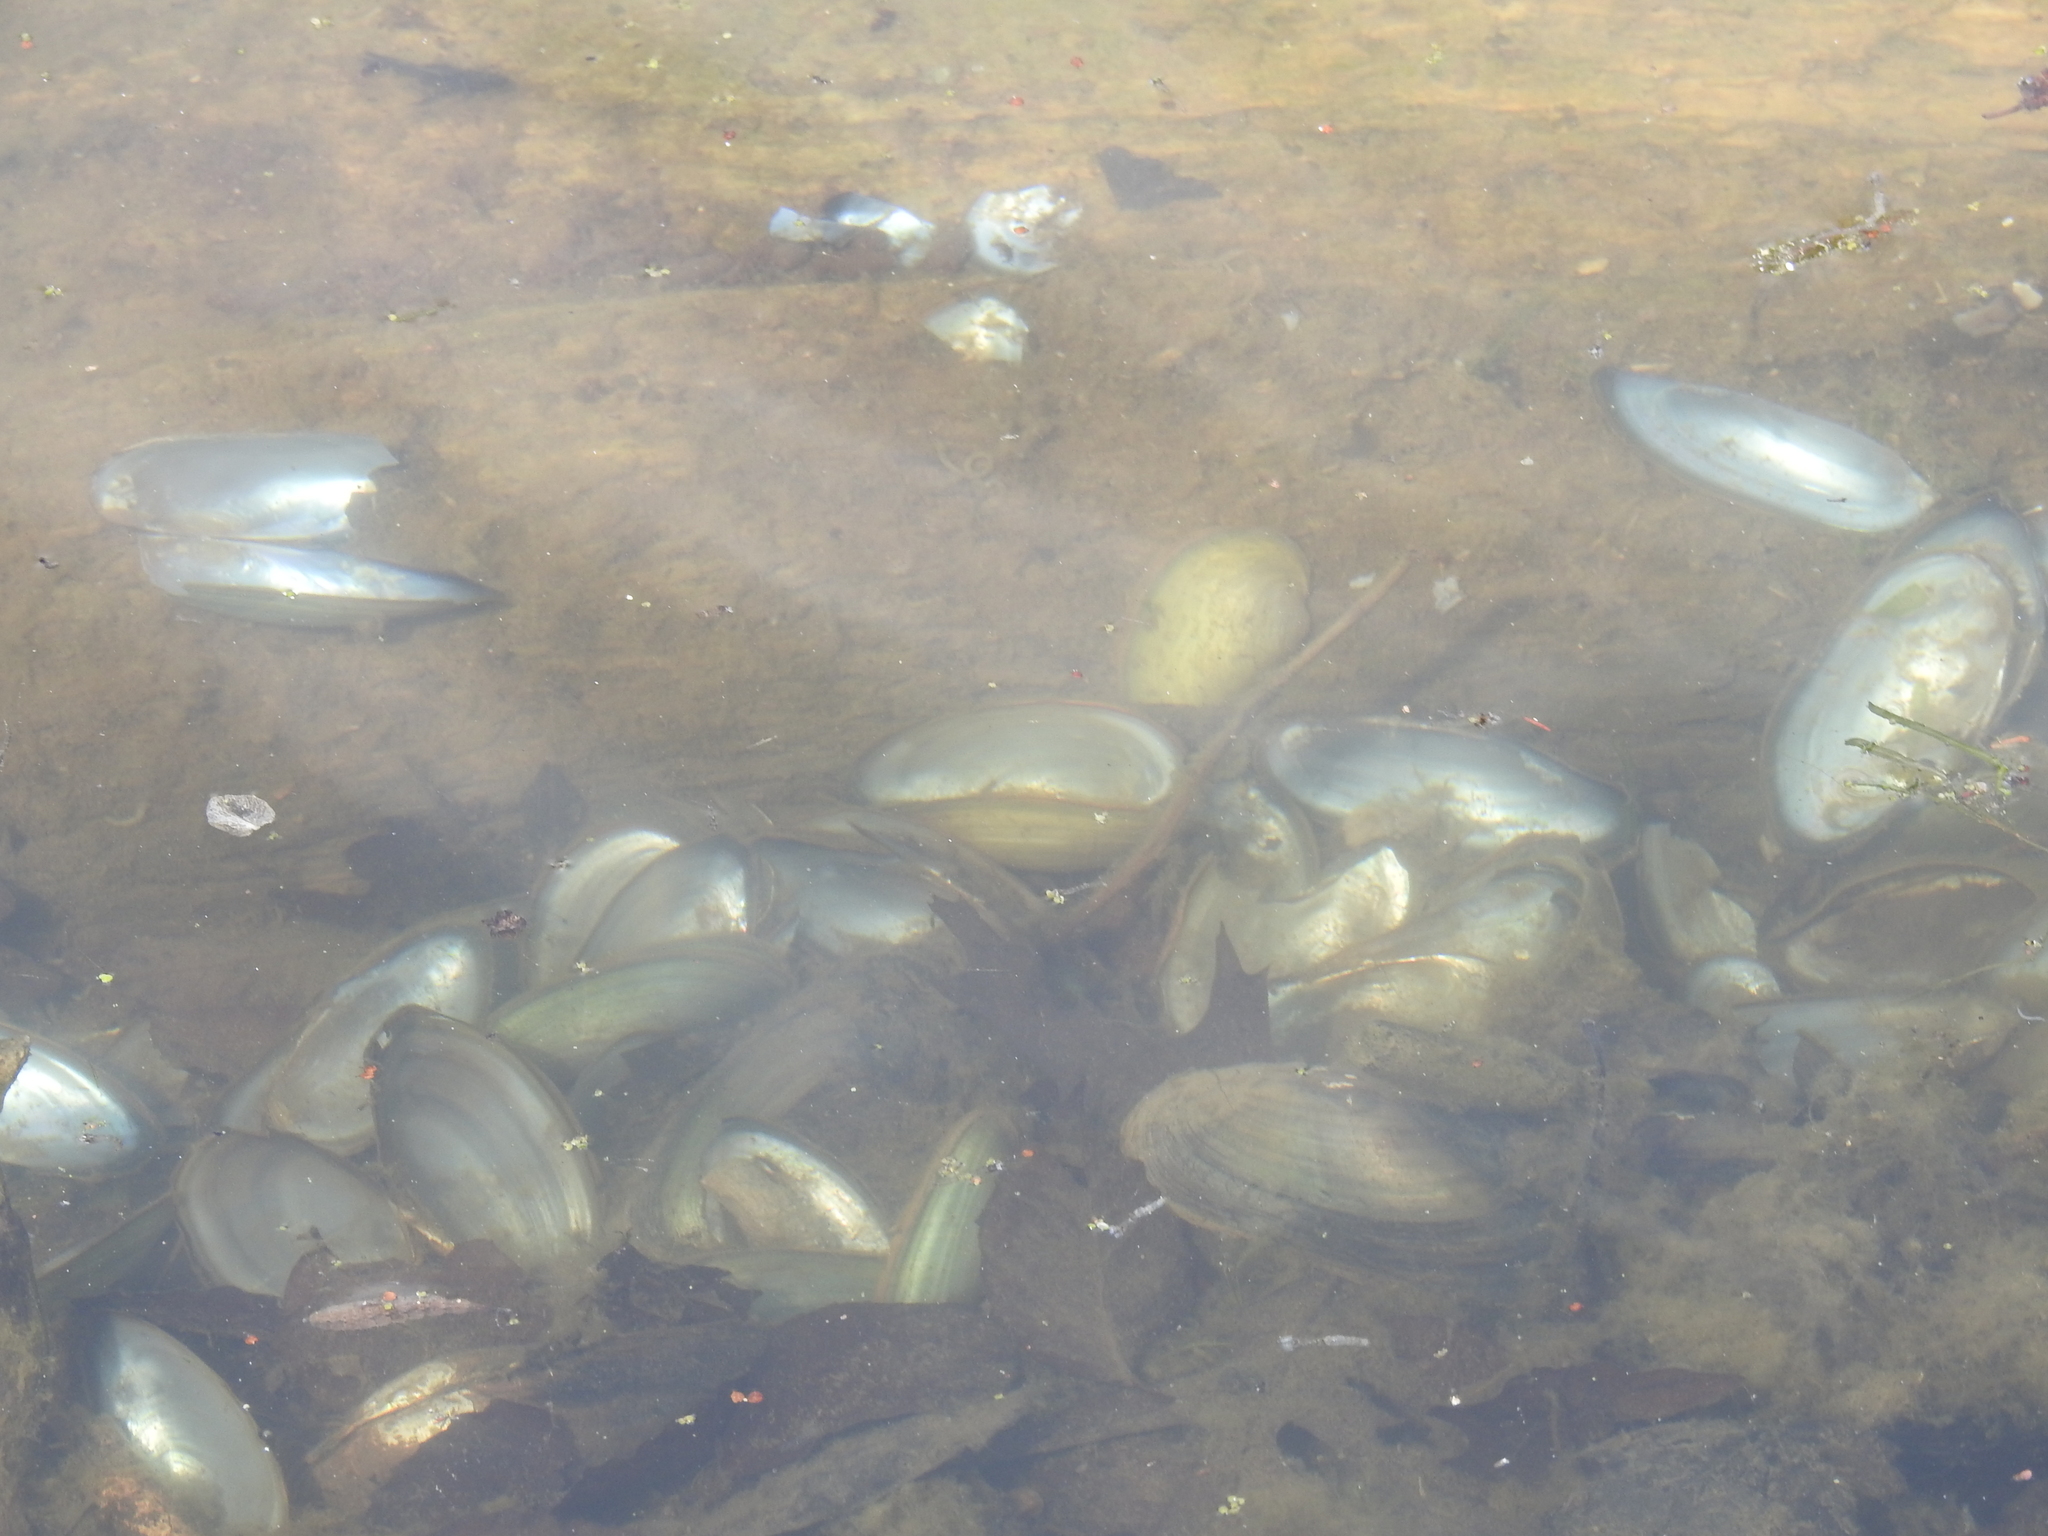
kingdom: Animalia
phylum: Mollusca
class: Bivalvia
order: Unionida
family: Unionidae
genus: Utterbackia
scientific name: Utterbackia imbecillis
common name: Paper pondshell
